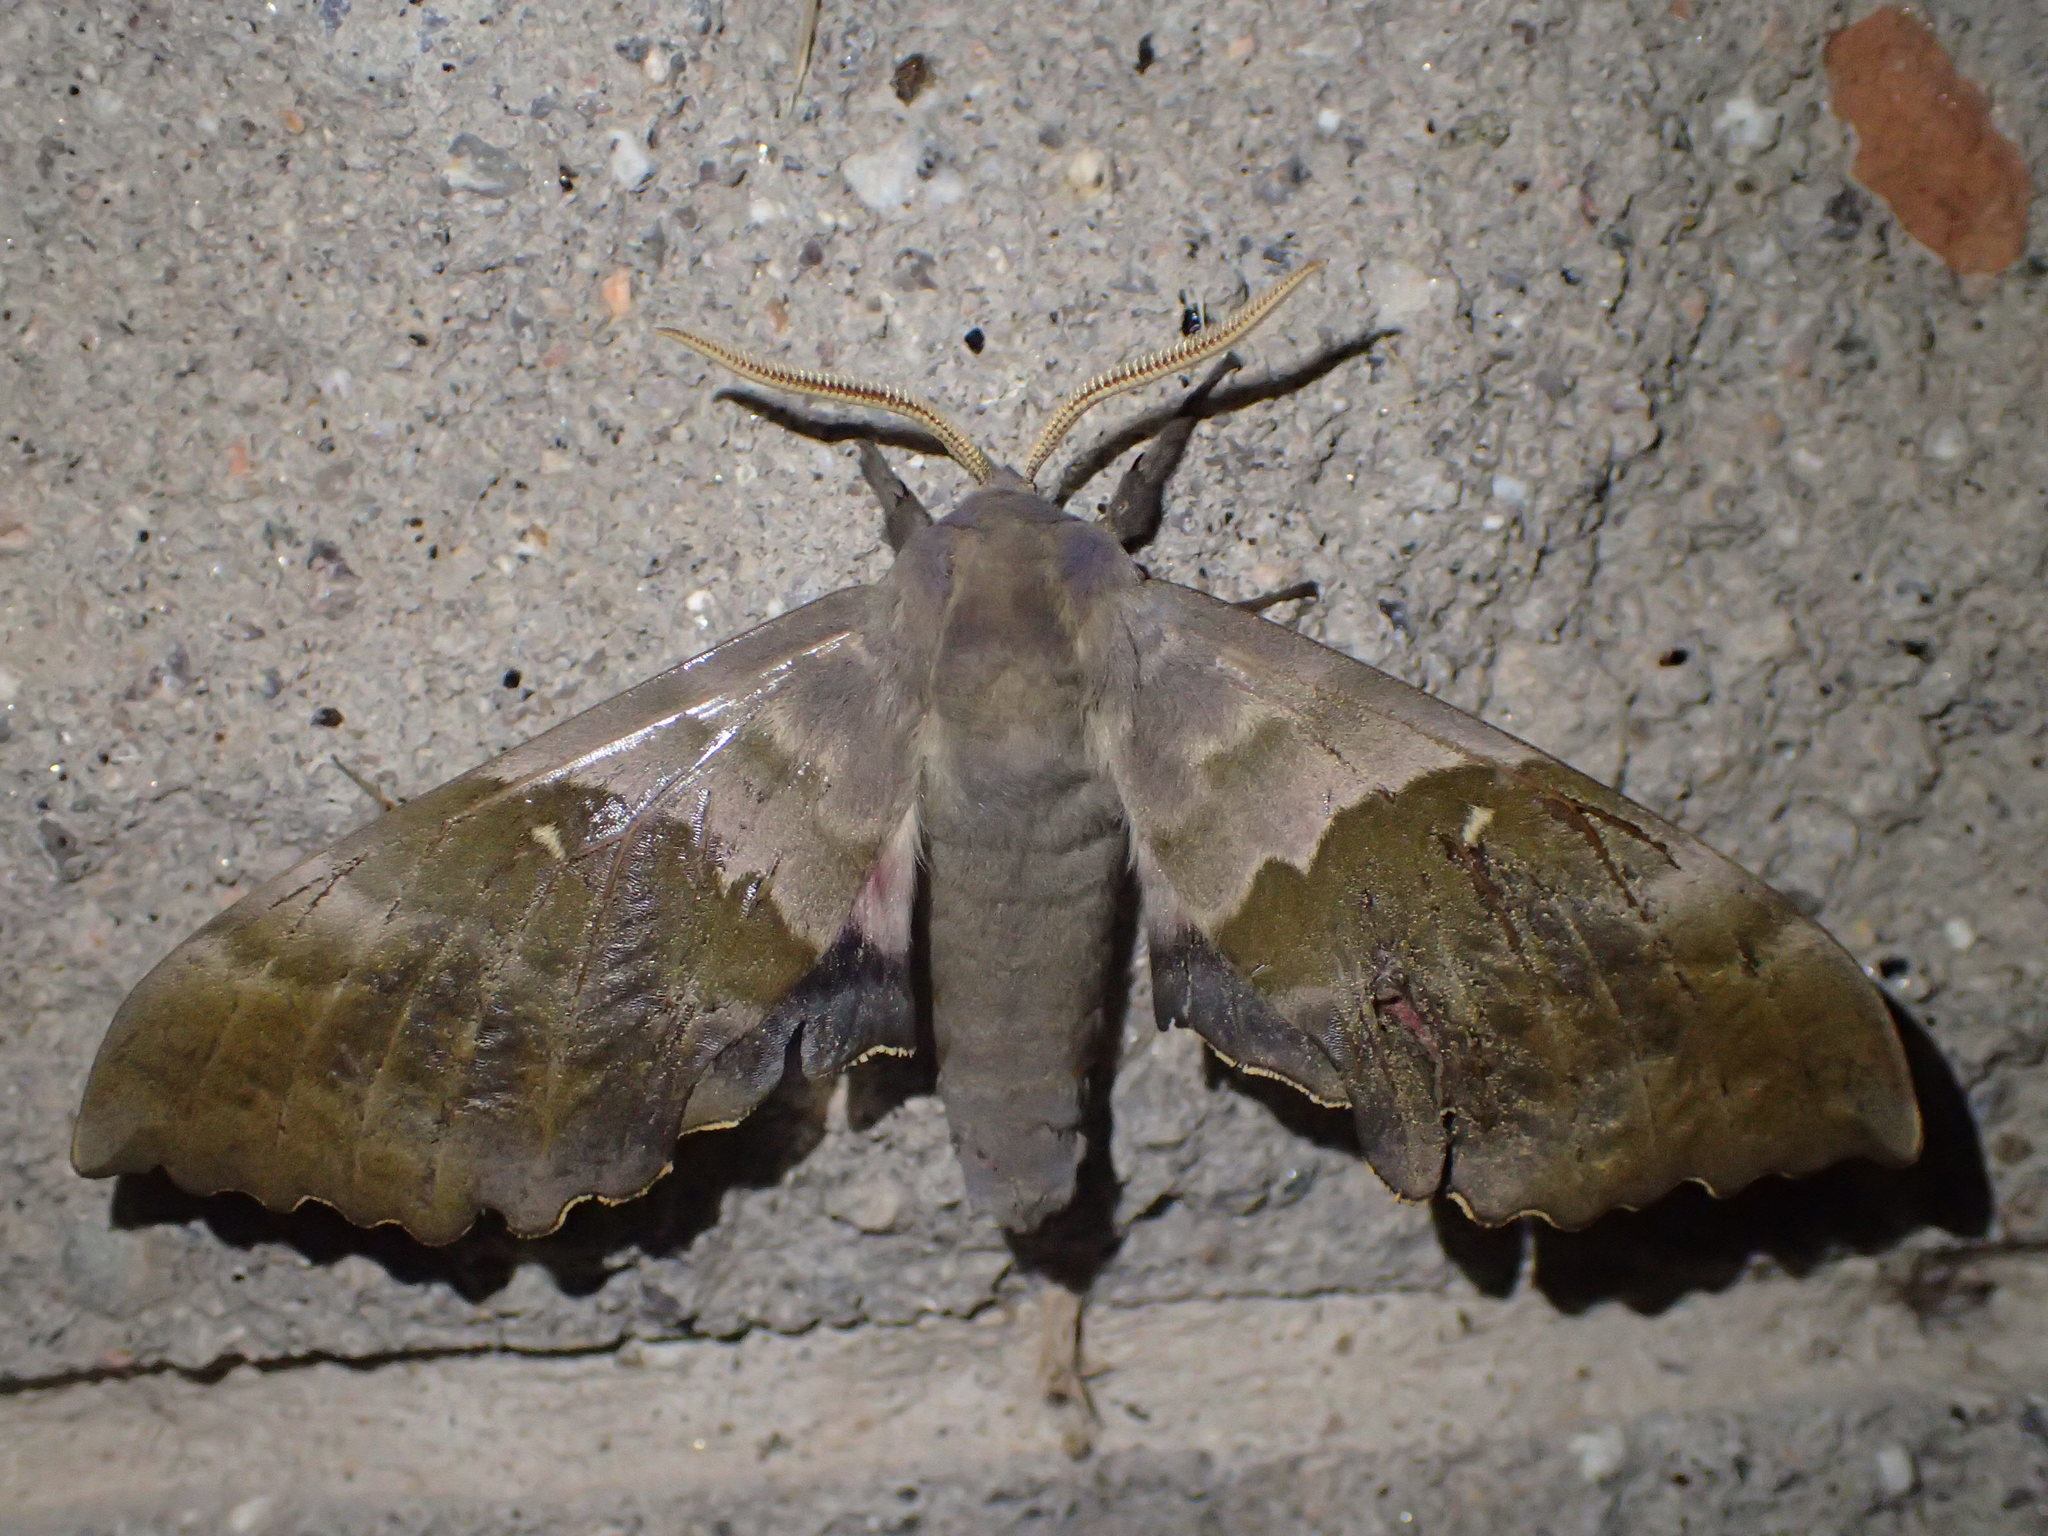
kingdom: Animalia
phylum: Arthropoda
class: Insecta
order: Lepidoptera
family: Sphingidae
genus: Pachysphinx
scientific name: Pachysphinx modesta
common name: Big poplar sphinx
